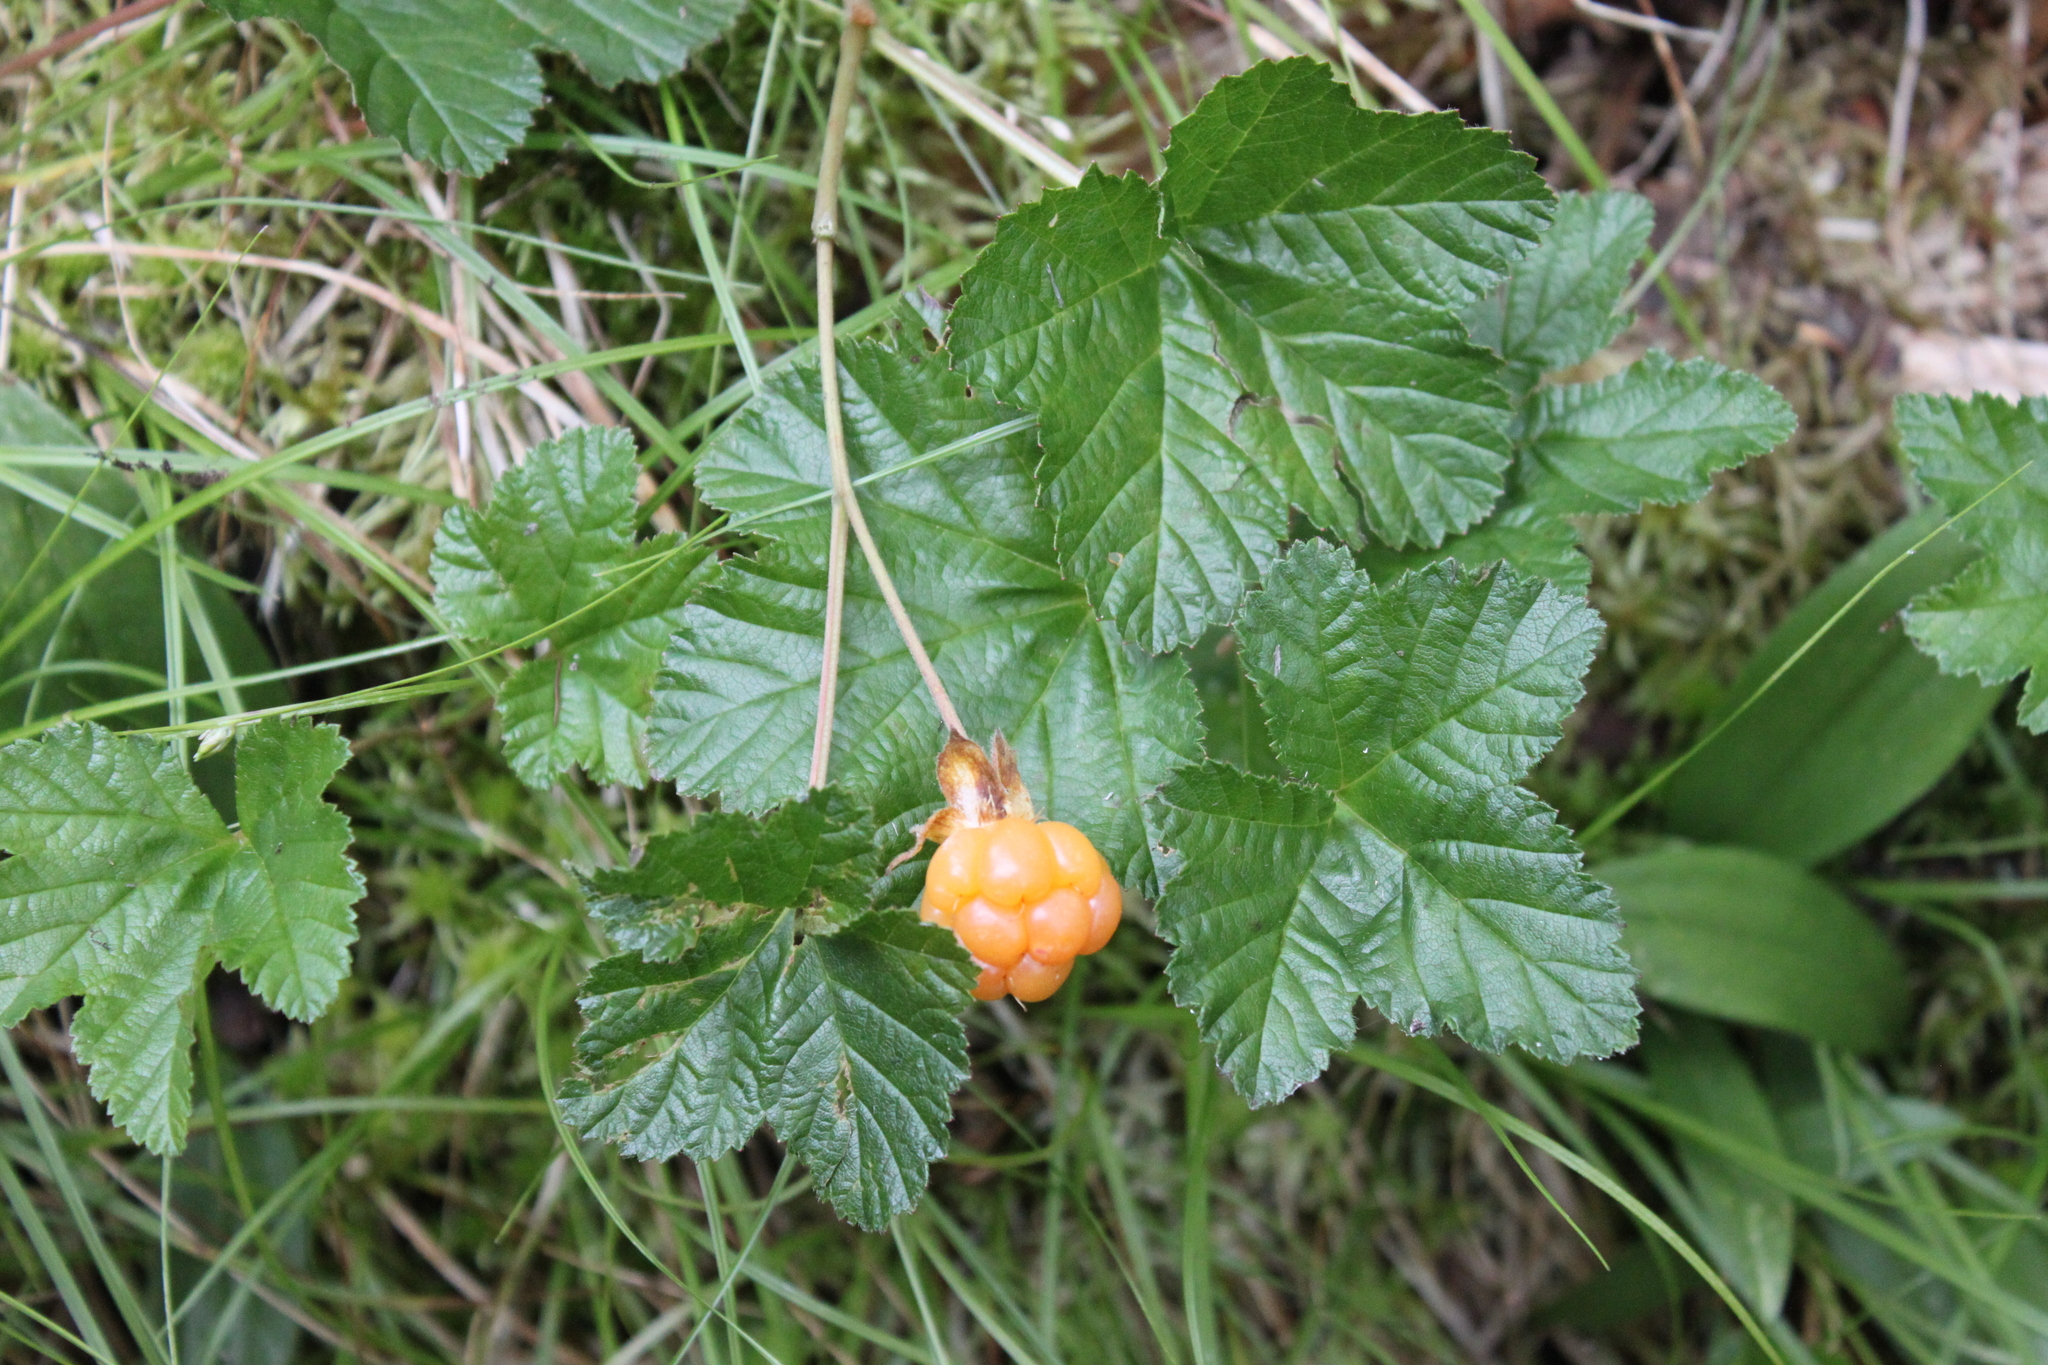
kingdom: Plantae
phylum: Tracheophyta
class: Magnoliopsida
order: Rosales
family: Rosaceae
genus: Rubus
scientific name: Rubus chamaemorus
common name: Cloudberry
